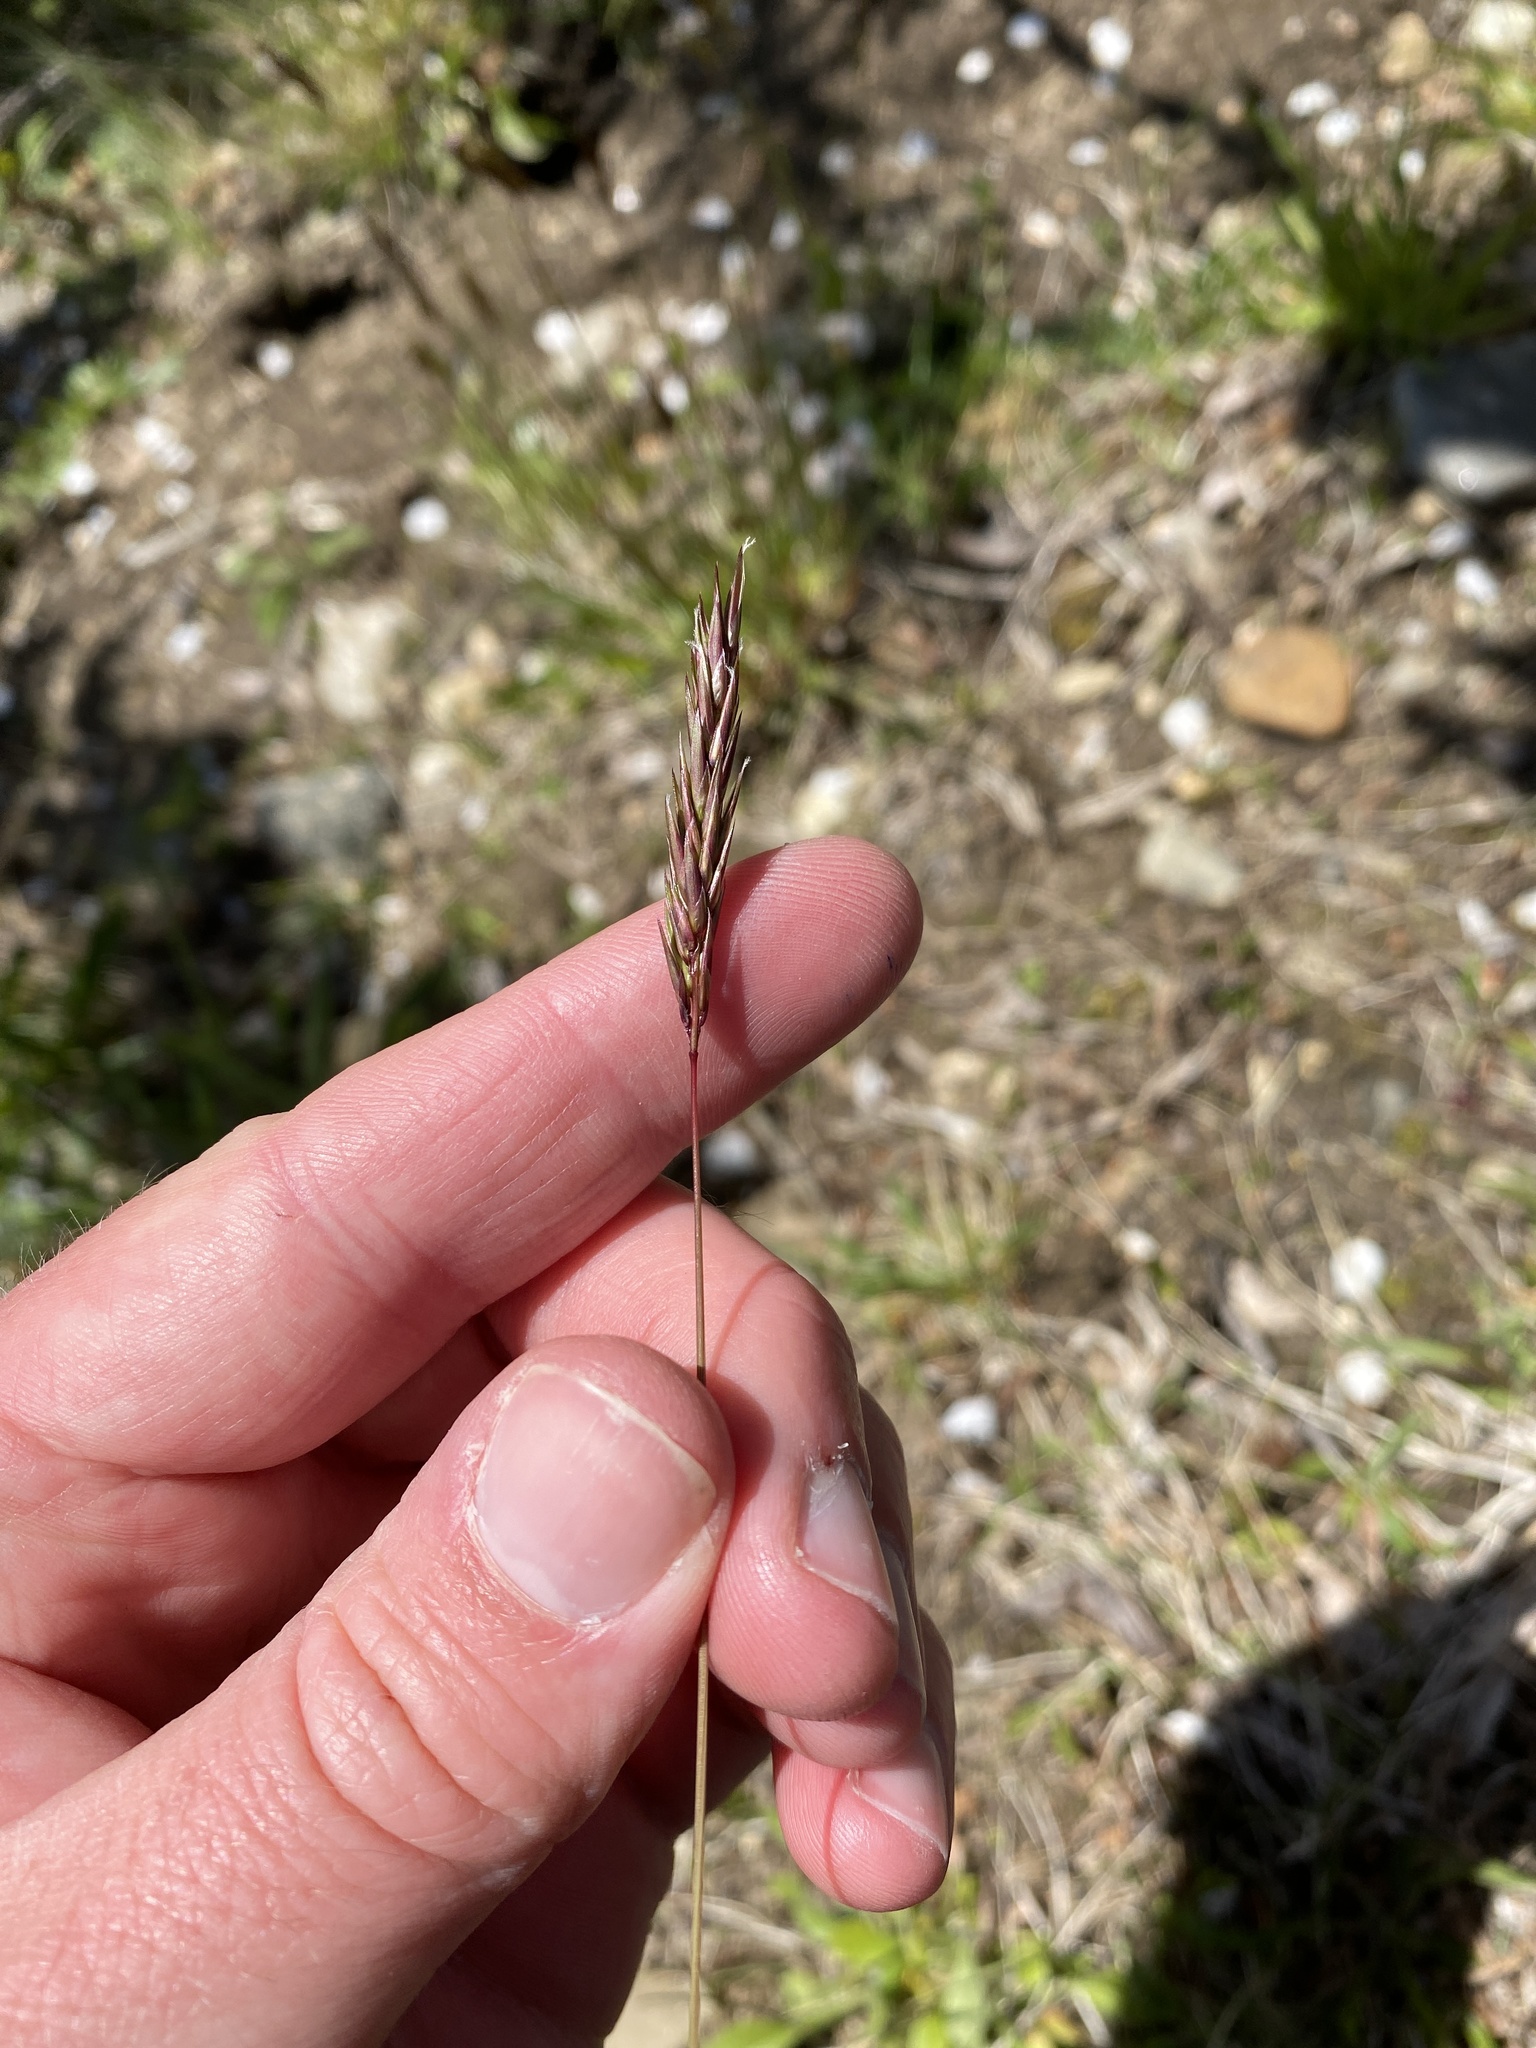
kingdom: Plantae
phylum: Tracheophyta
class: Liliopsida
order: Poales
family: Poaceae
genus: Anthoxanthum
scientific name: Anthoxanthum odoratum
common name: Sweet vernalgrass
